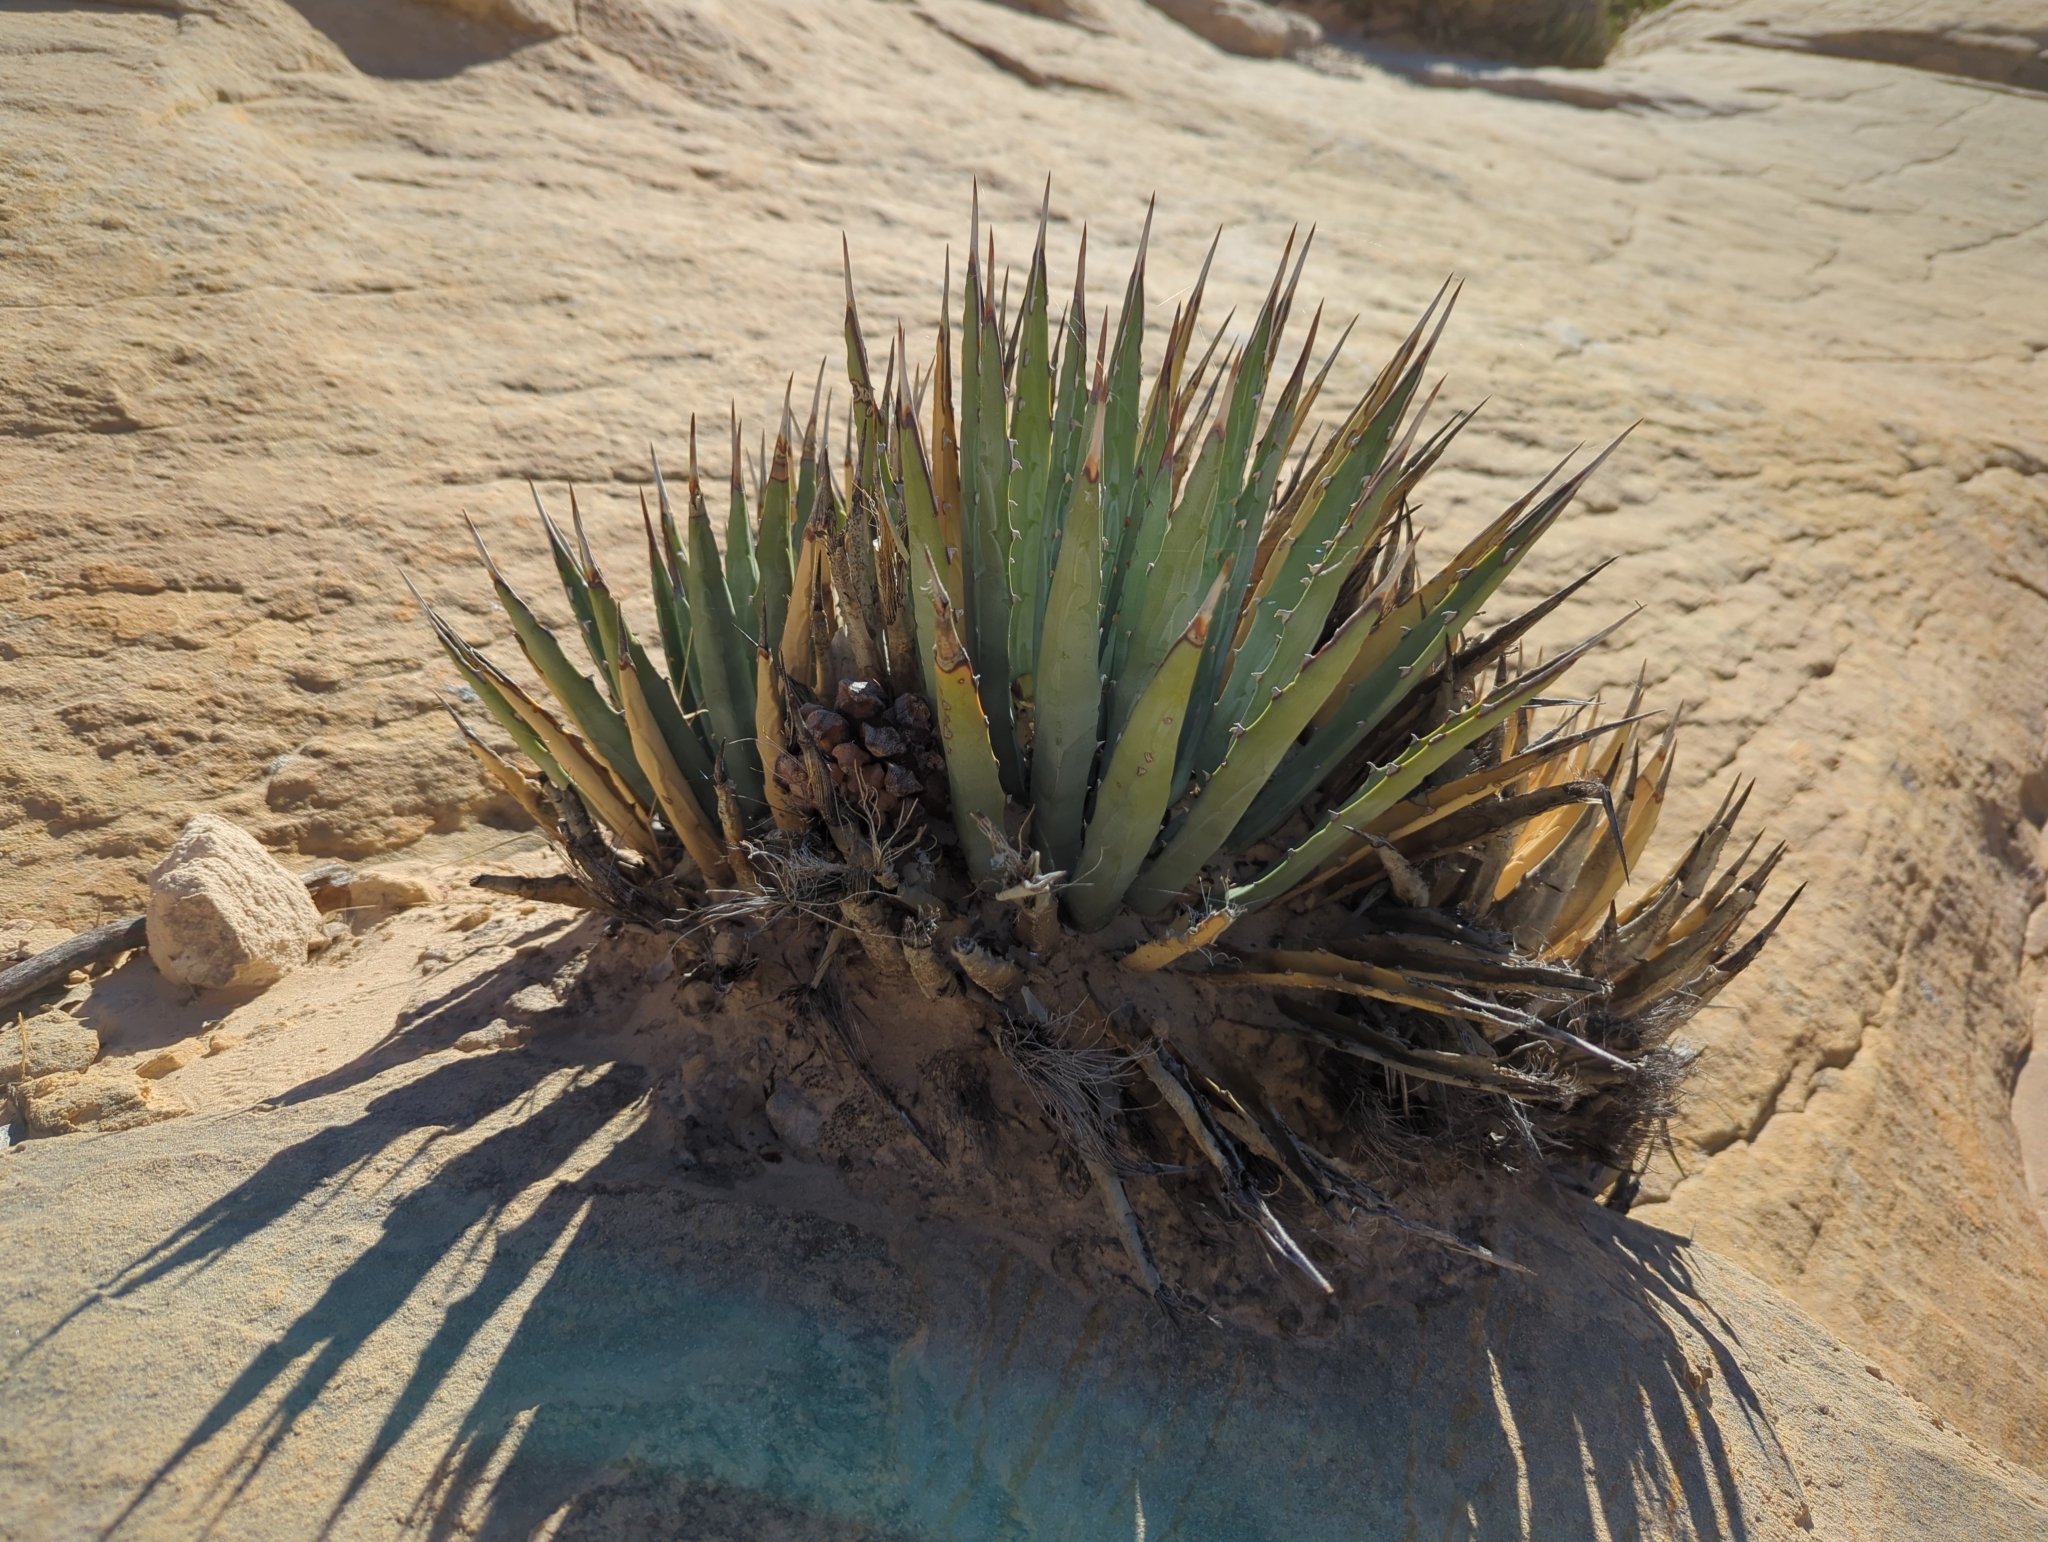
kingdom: Plantae
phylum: Tracheophyta
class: Liliopsida
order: Asparagales
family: Asparagaceae
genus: Agave
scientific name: Agave utahensis
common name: Utah agave
